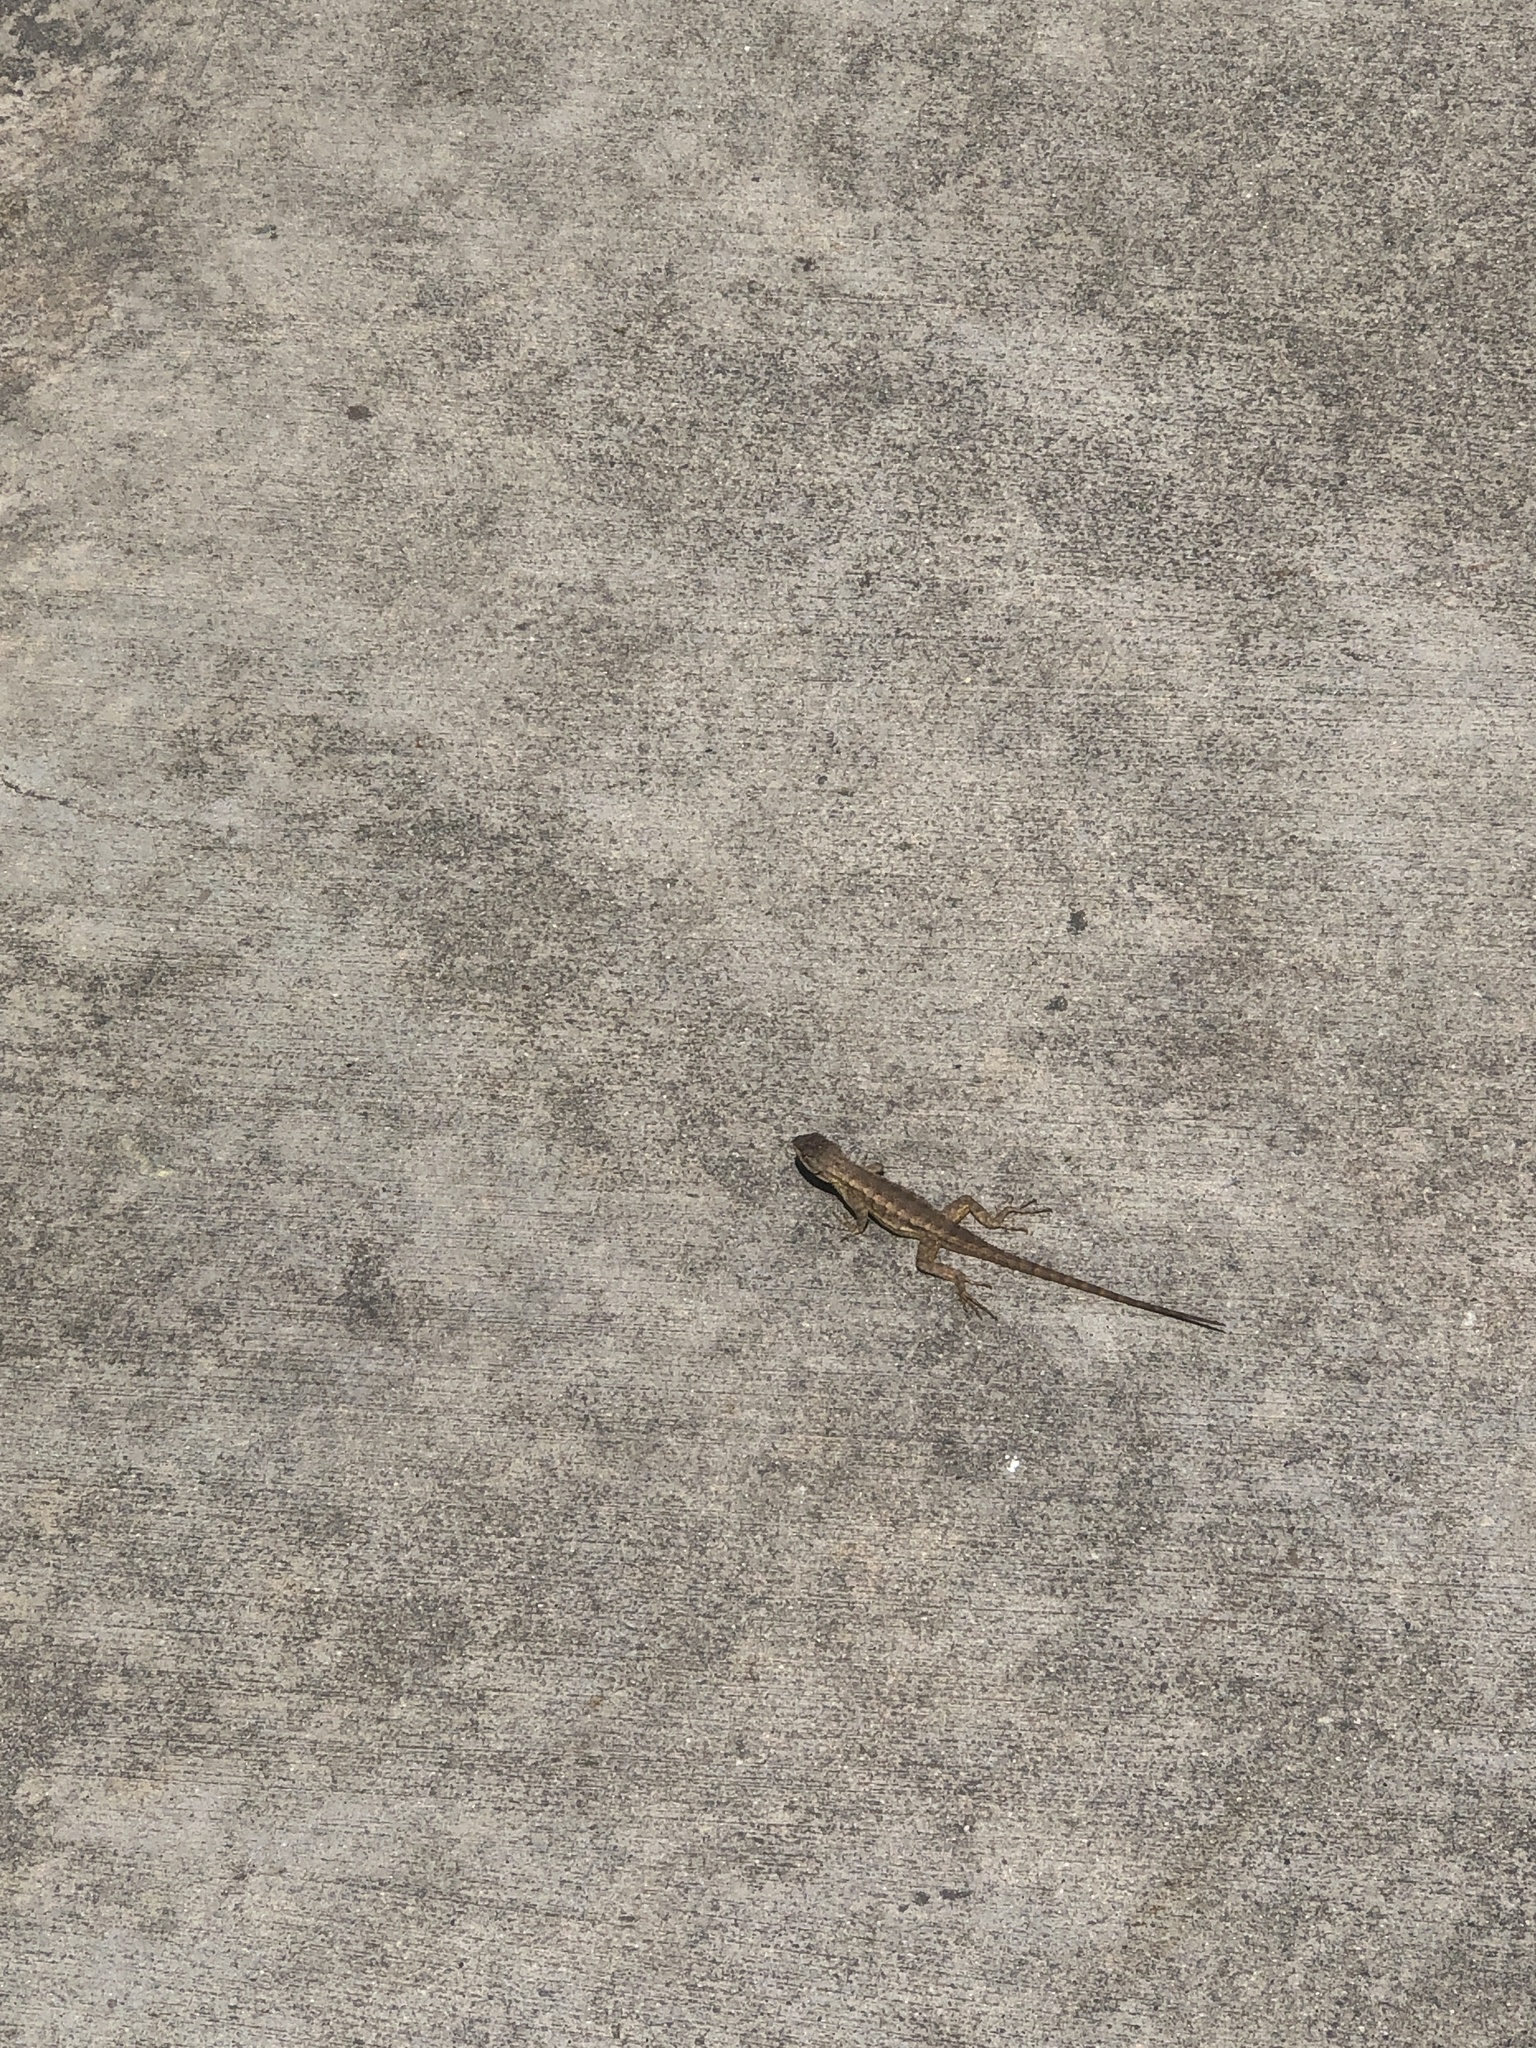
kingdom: Animalia
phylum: Chordata
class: Squamata
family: Phrynosomatidae
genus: Sceloporus
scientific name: Sceloporus occidentalis
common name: Western fence lizard
